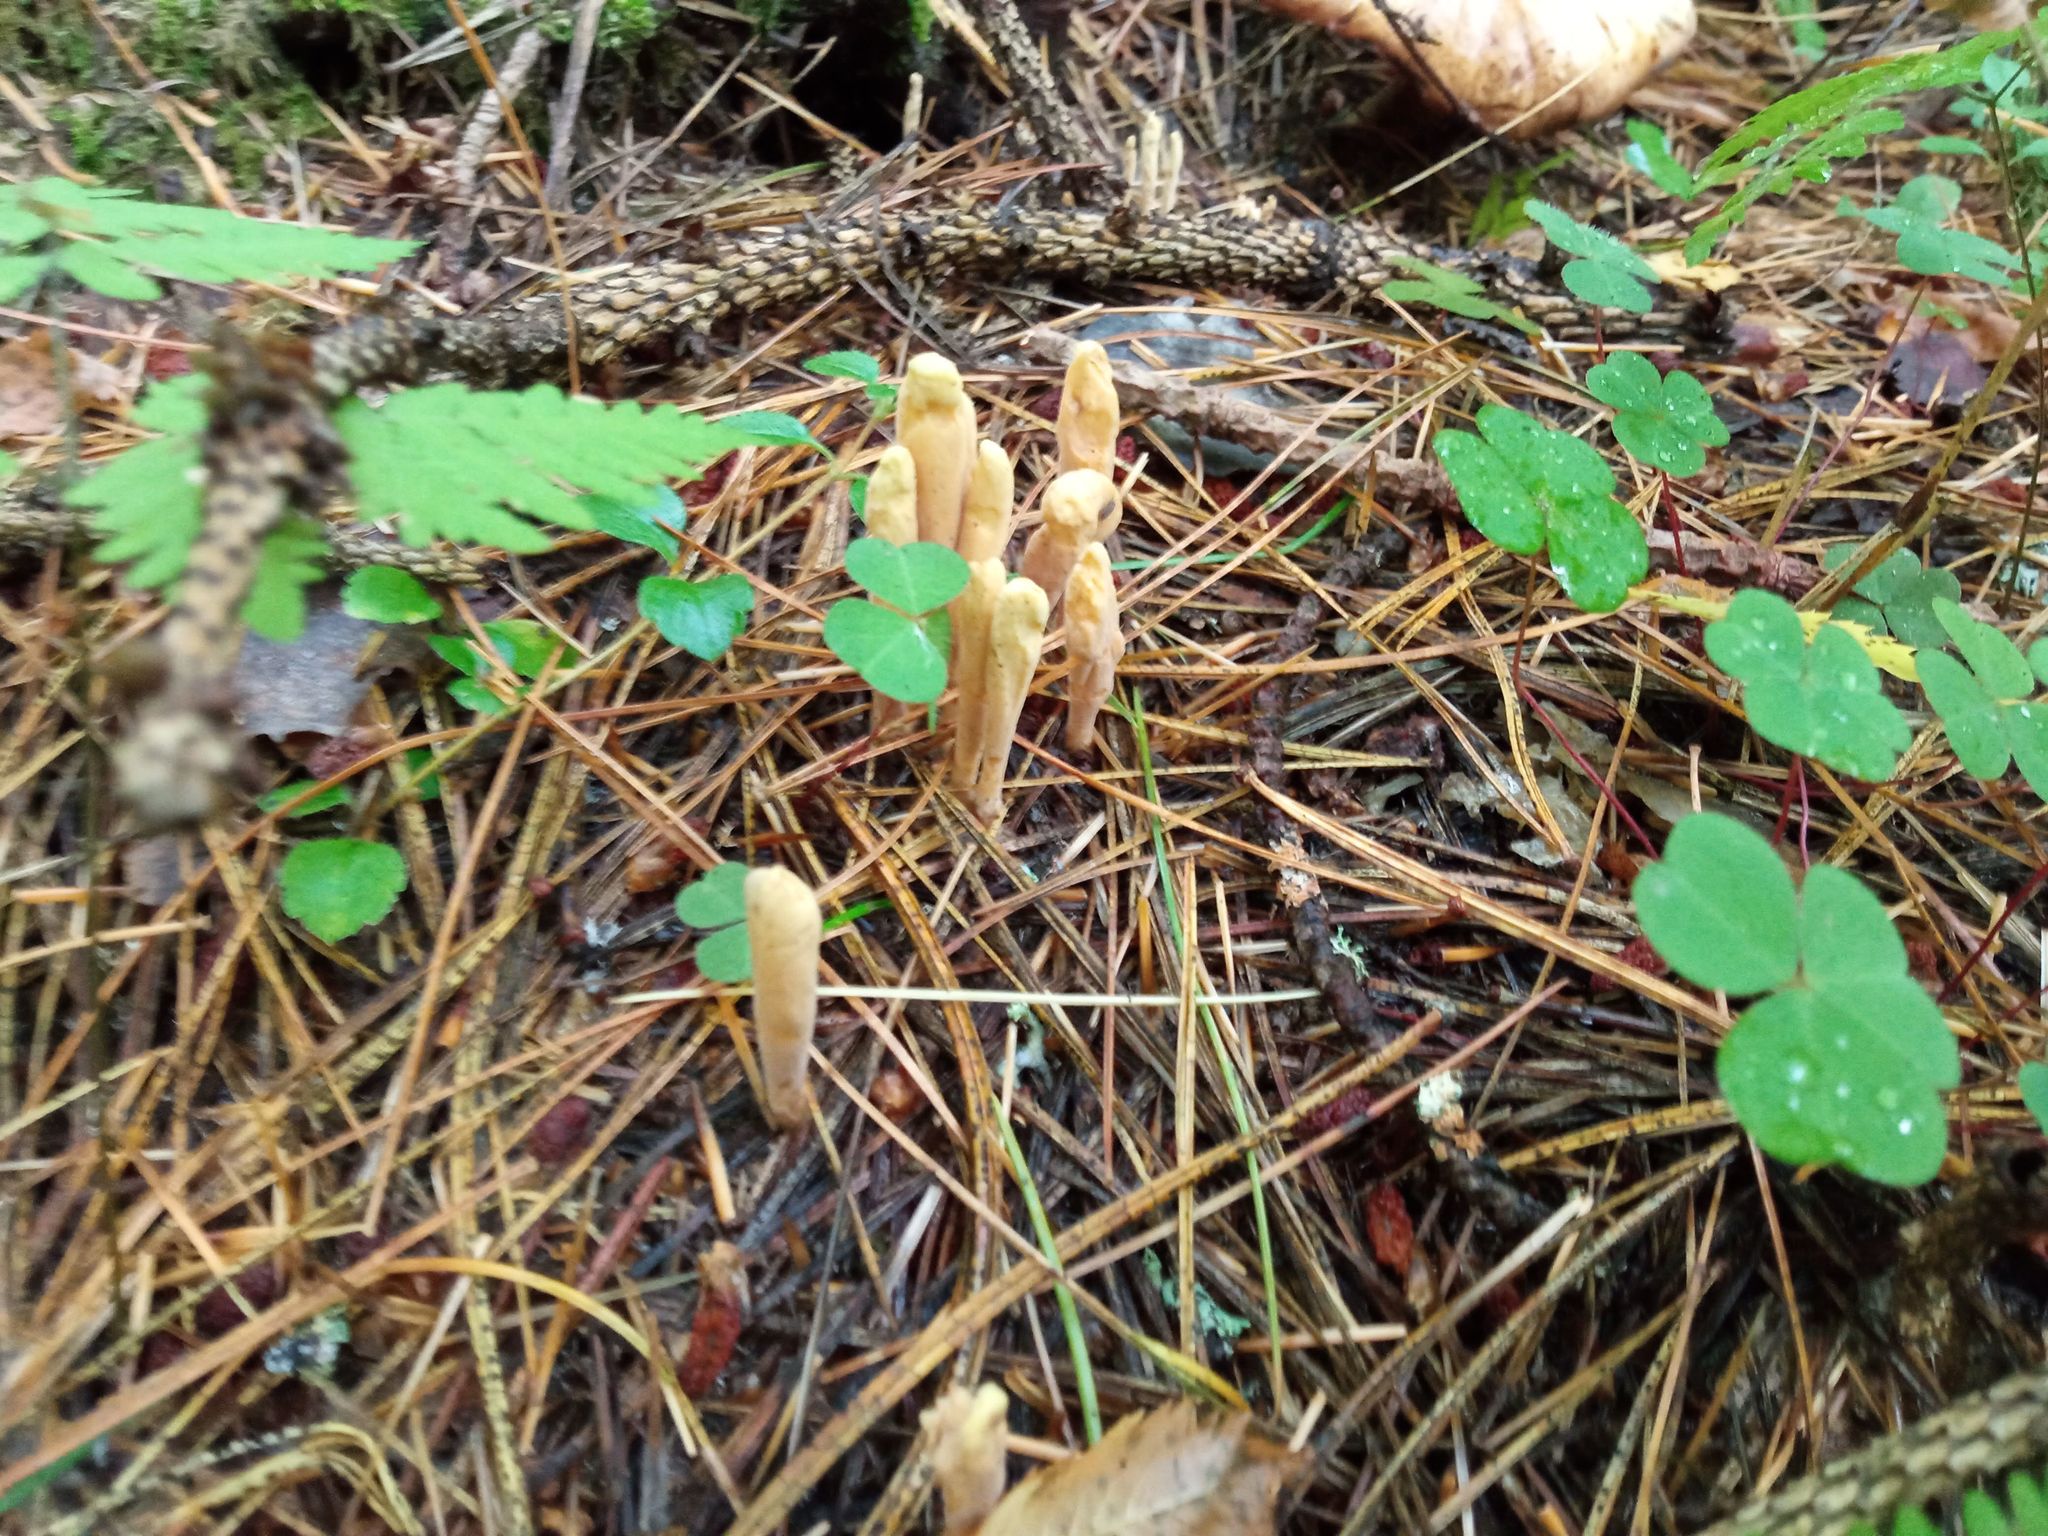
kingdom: Fungi
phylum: Basidiomycota
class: Agaricomycetes
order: Gomphales
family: Clavariadelphaceae
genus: Clavariadelphus
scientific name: Clavariadelphus ligula
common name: Ochre club
